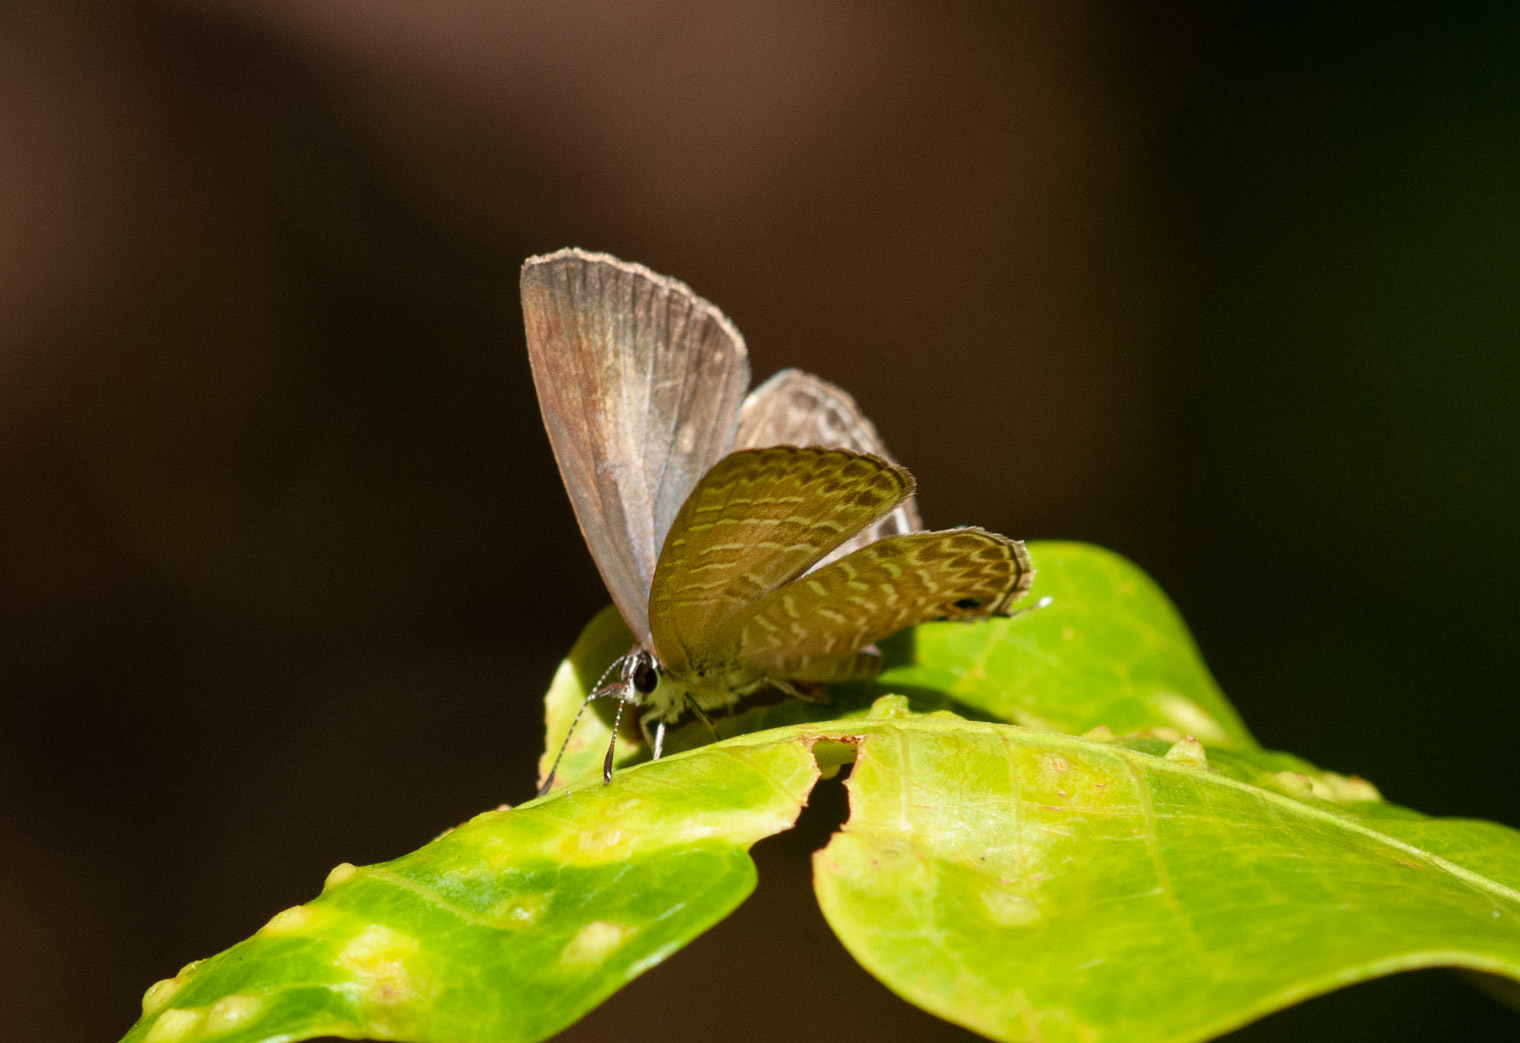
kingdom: Animalia
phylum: Arthropoda
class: Insecta
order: Lepidoptera
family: Lycaenidae
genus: Nacaduba
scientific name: Nacaduba berenice
